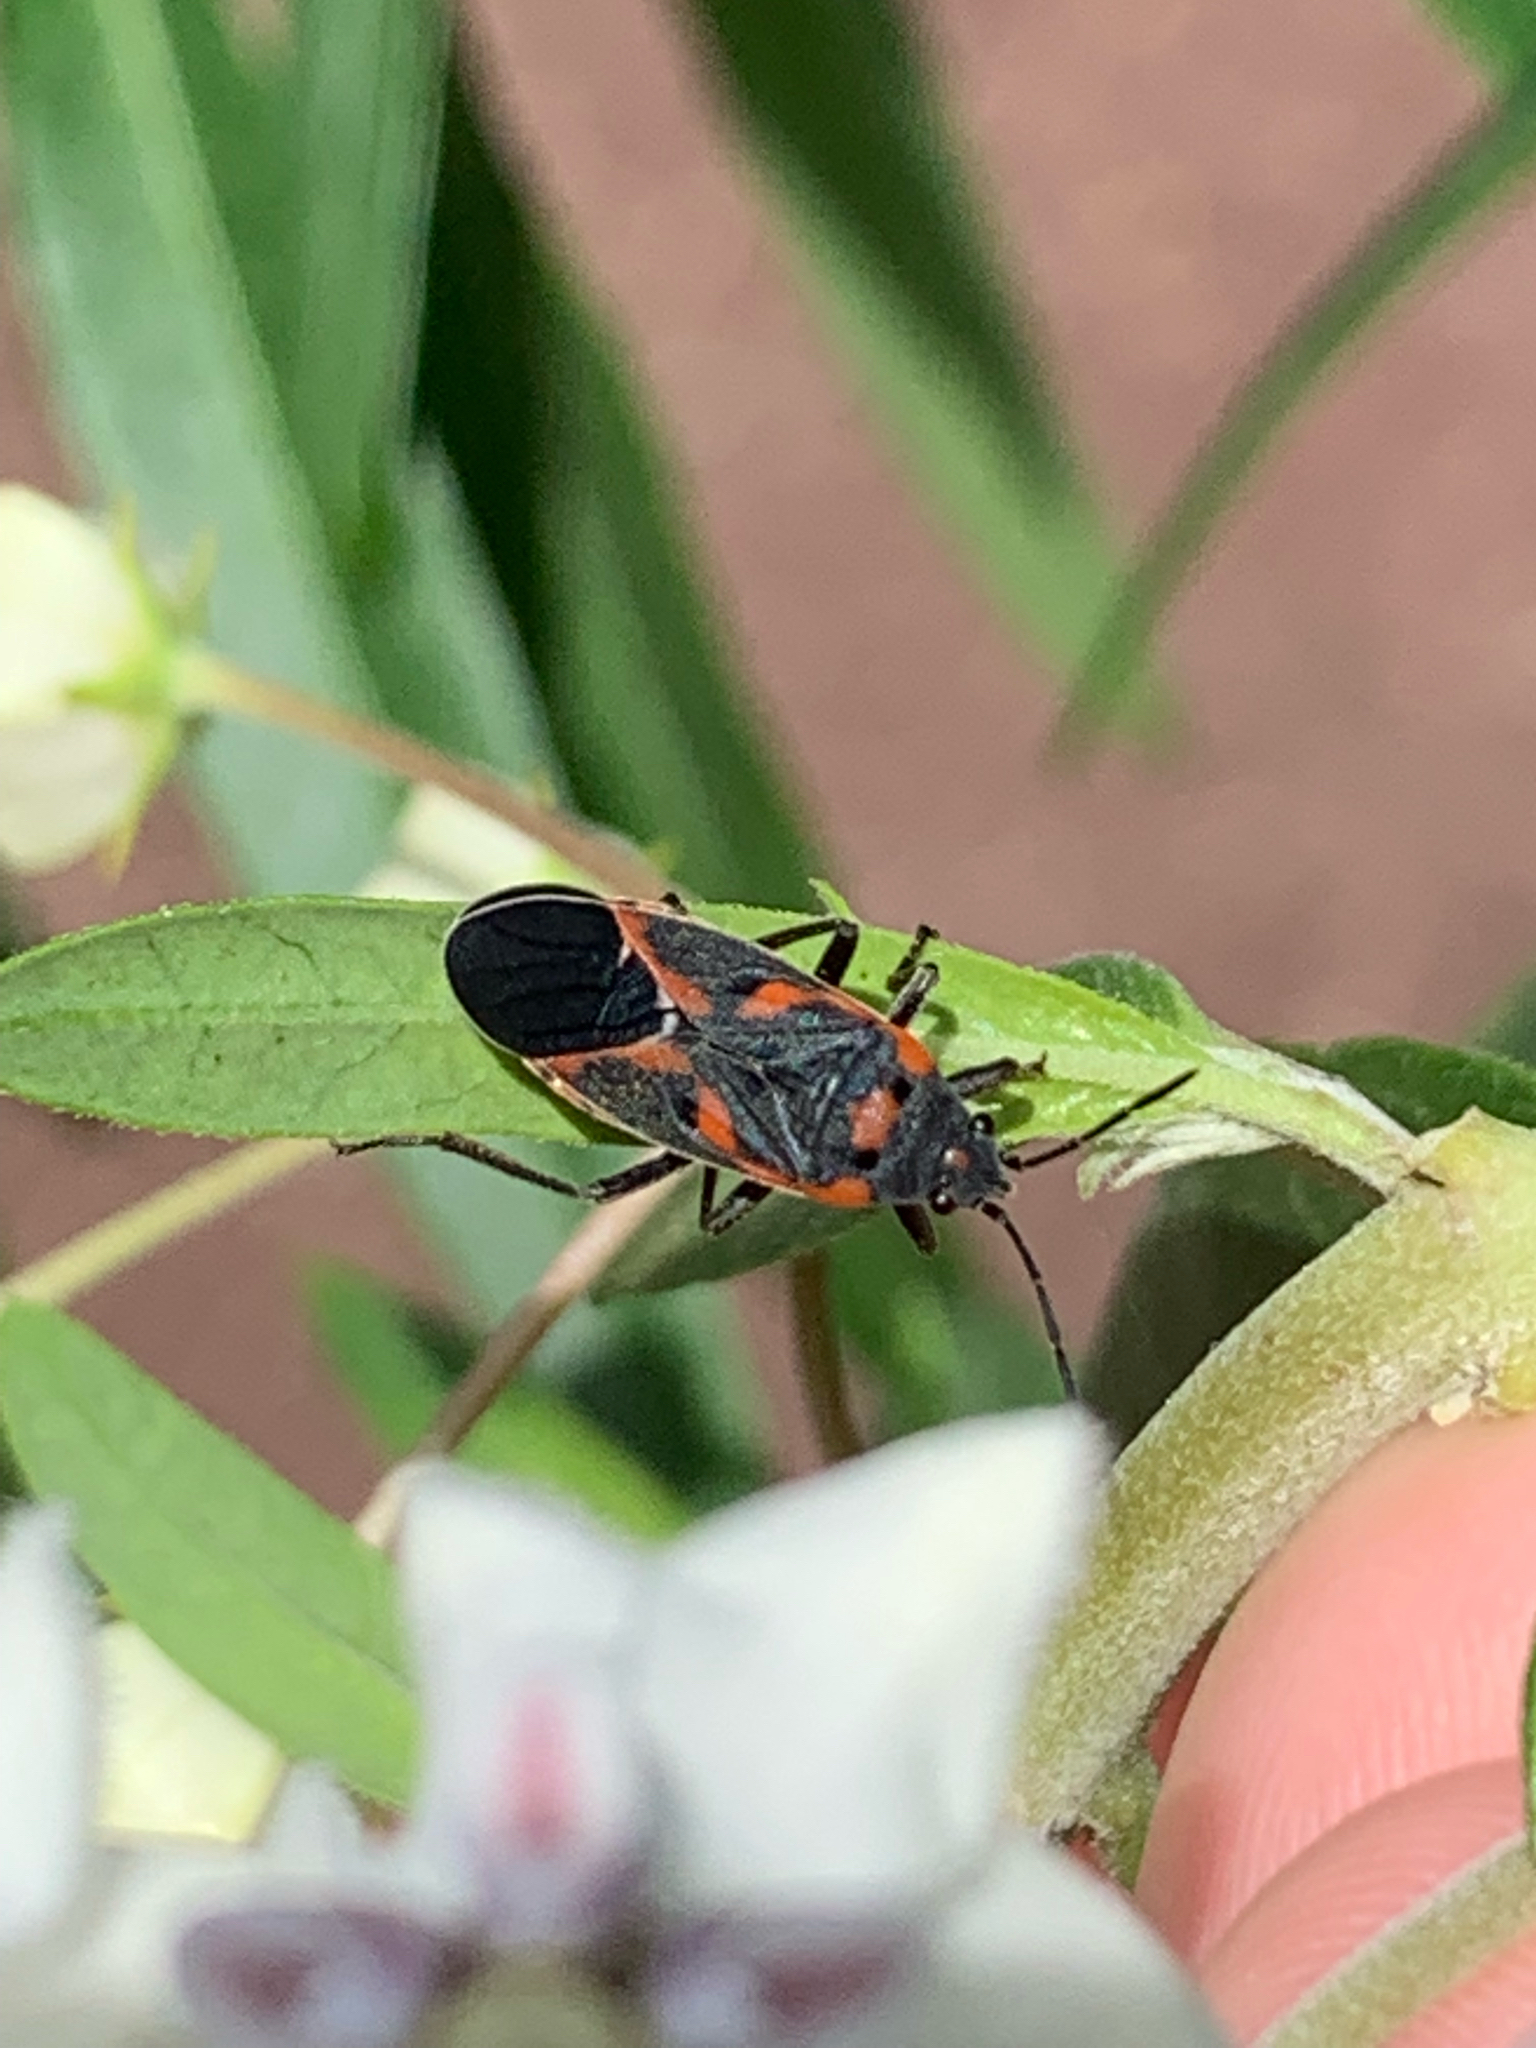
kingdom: Animalia
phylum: Arthropoda
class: Insecta
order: Hemiptera
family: Lygaeidae
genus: Lygaeus
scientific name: Lygaeus kalmii
